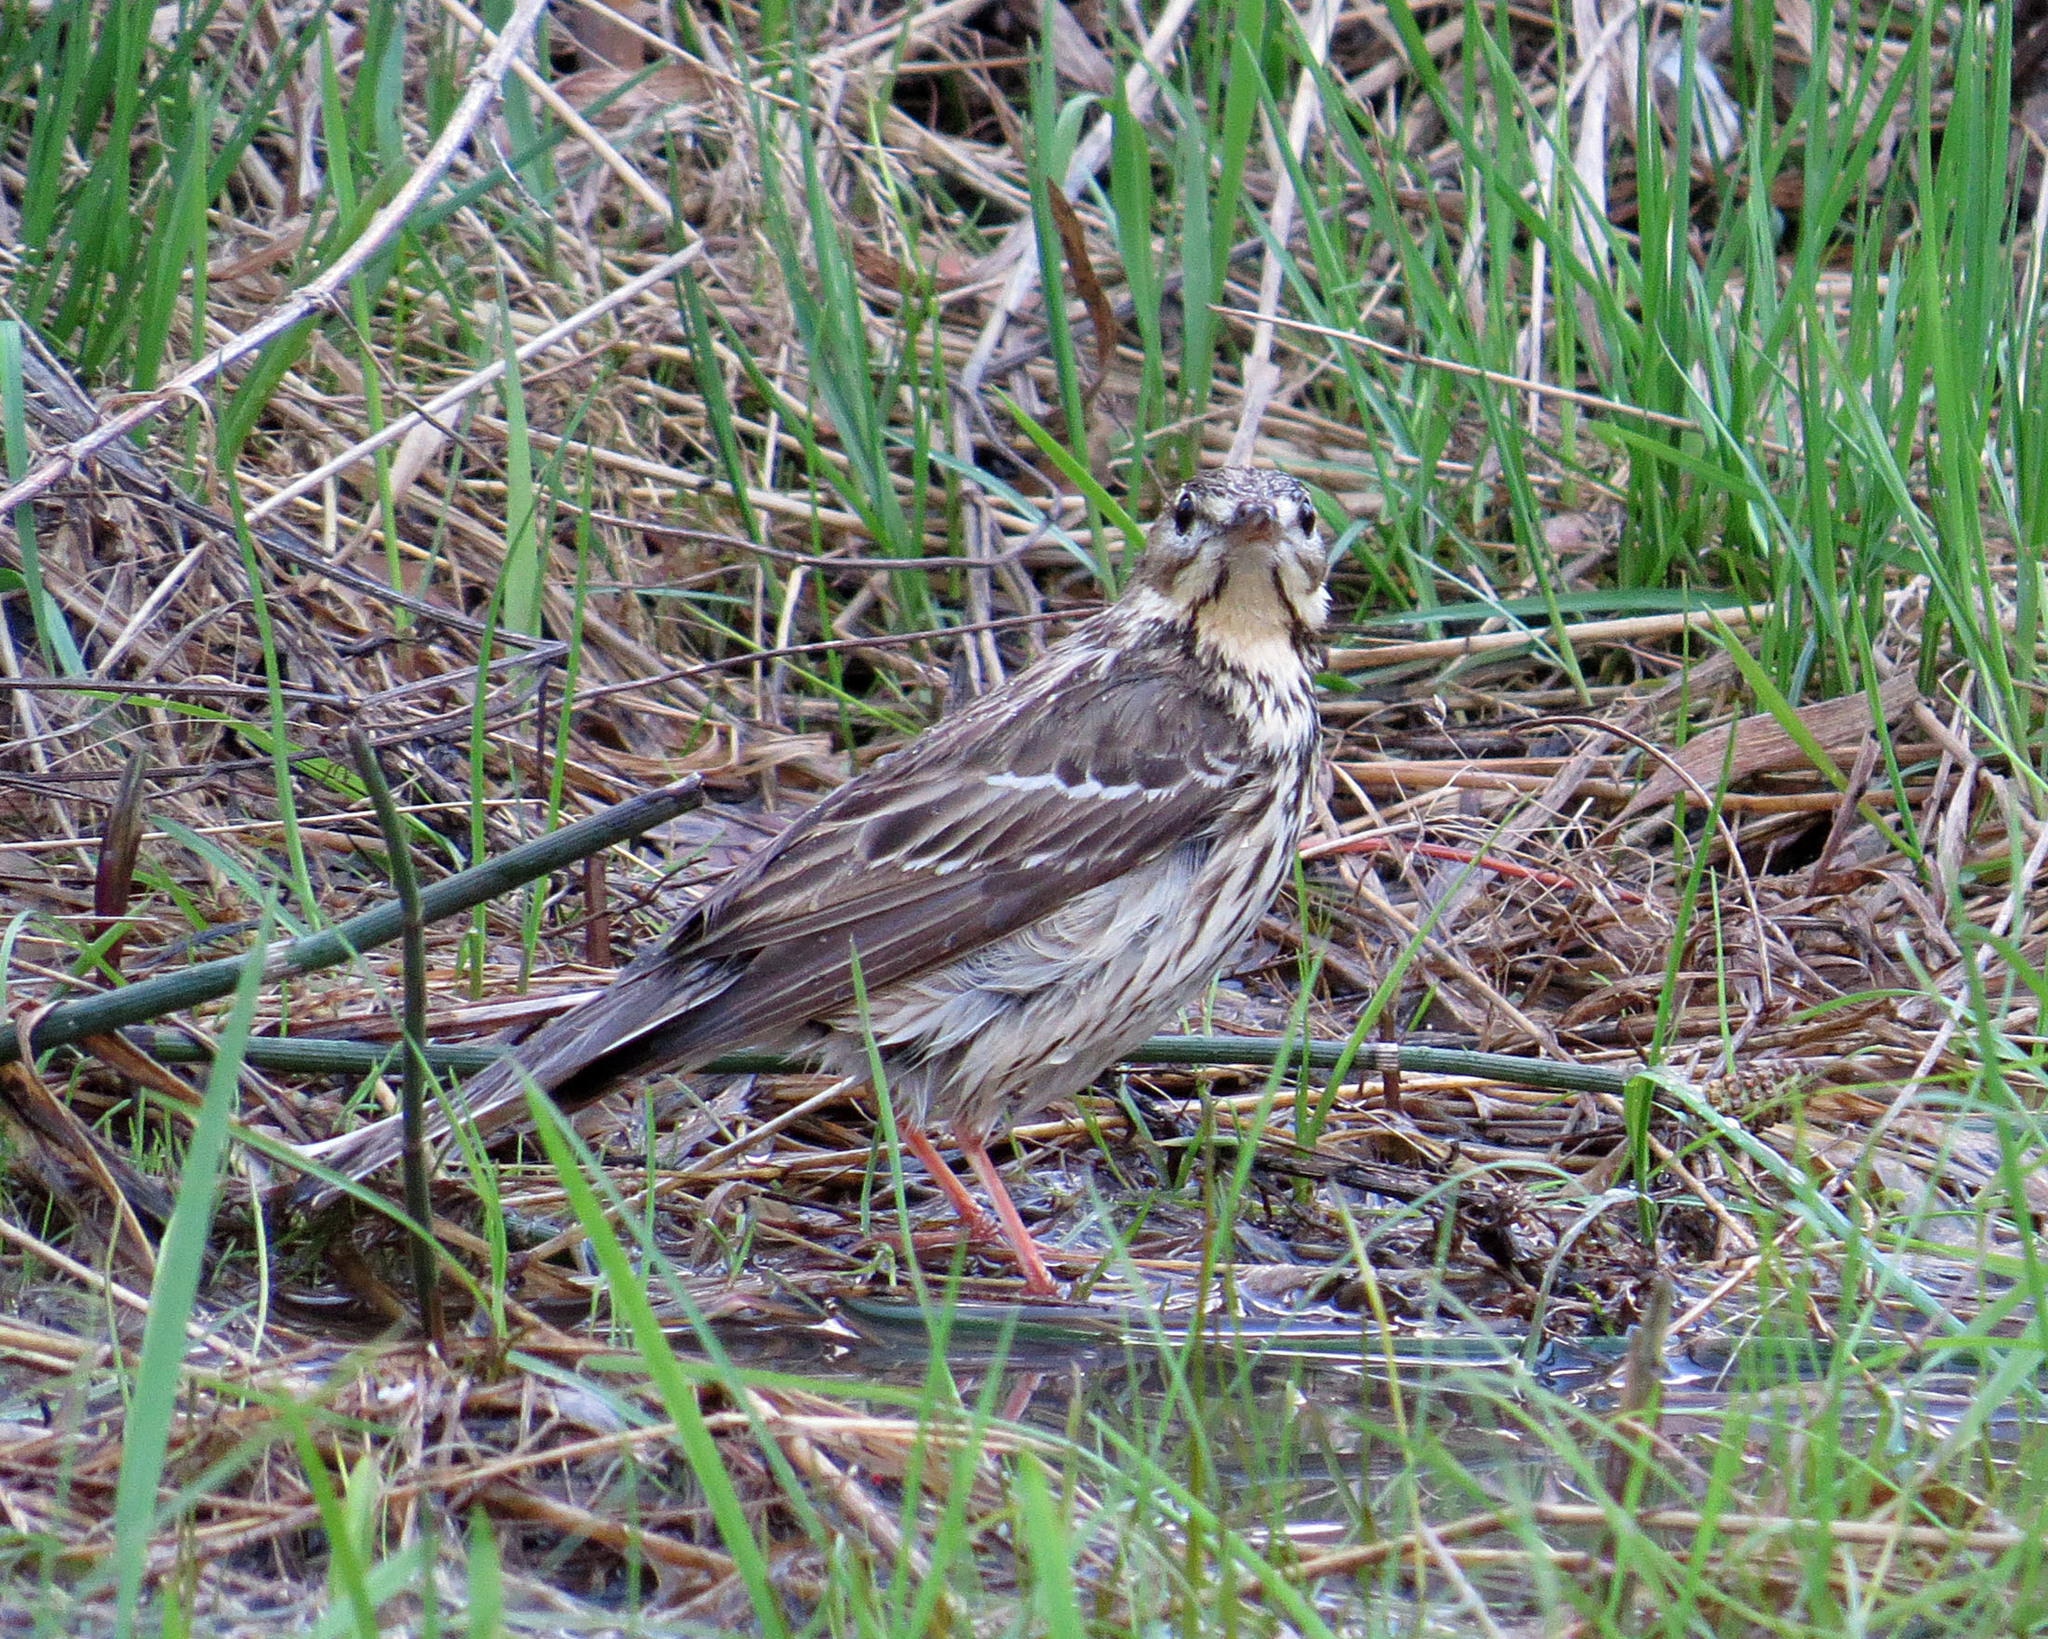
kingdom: Animalia
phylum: Chordata
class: Aves
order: Passeriformes
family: Motacillidae
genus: Anthus
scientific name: Anthus trivialis
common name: Tree pipit
